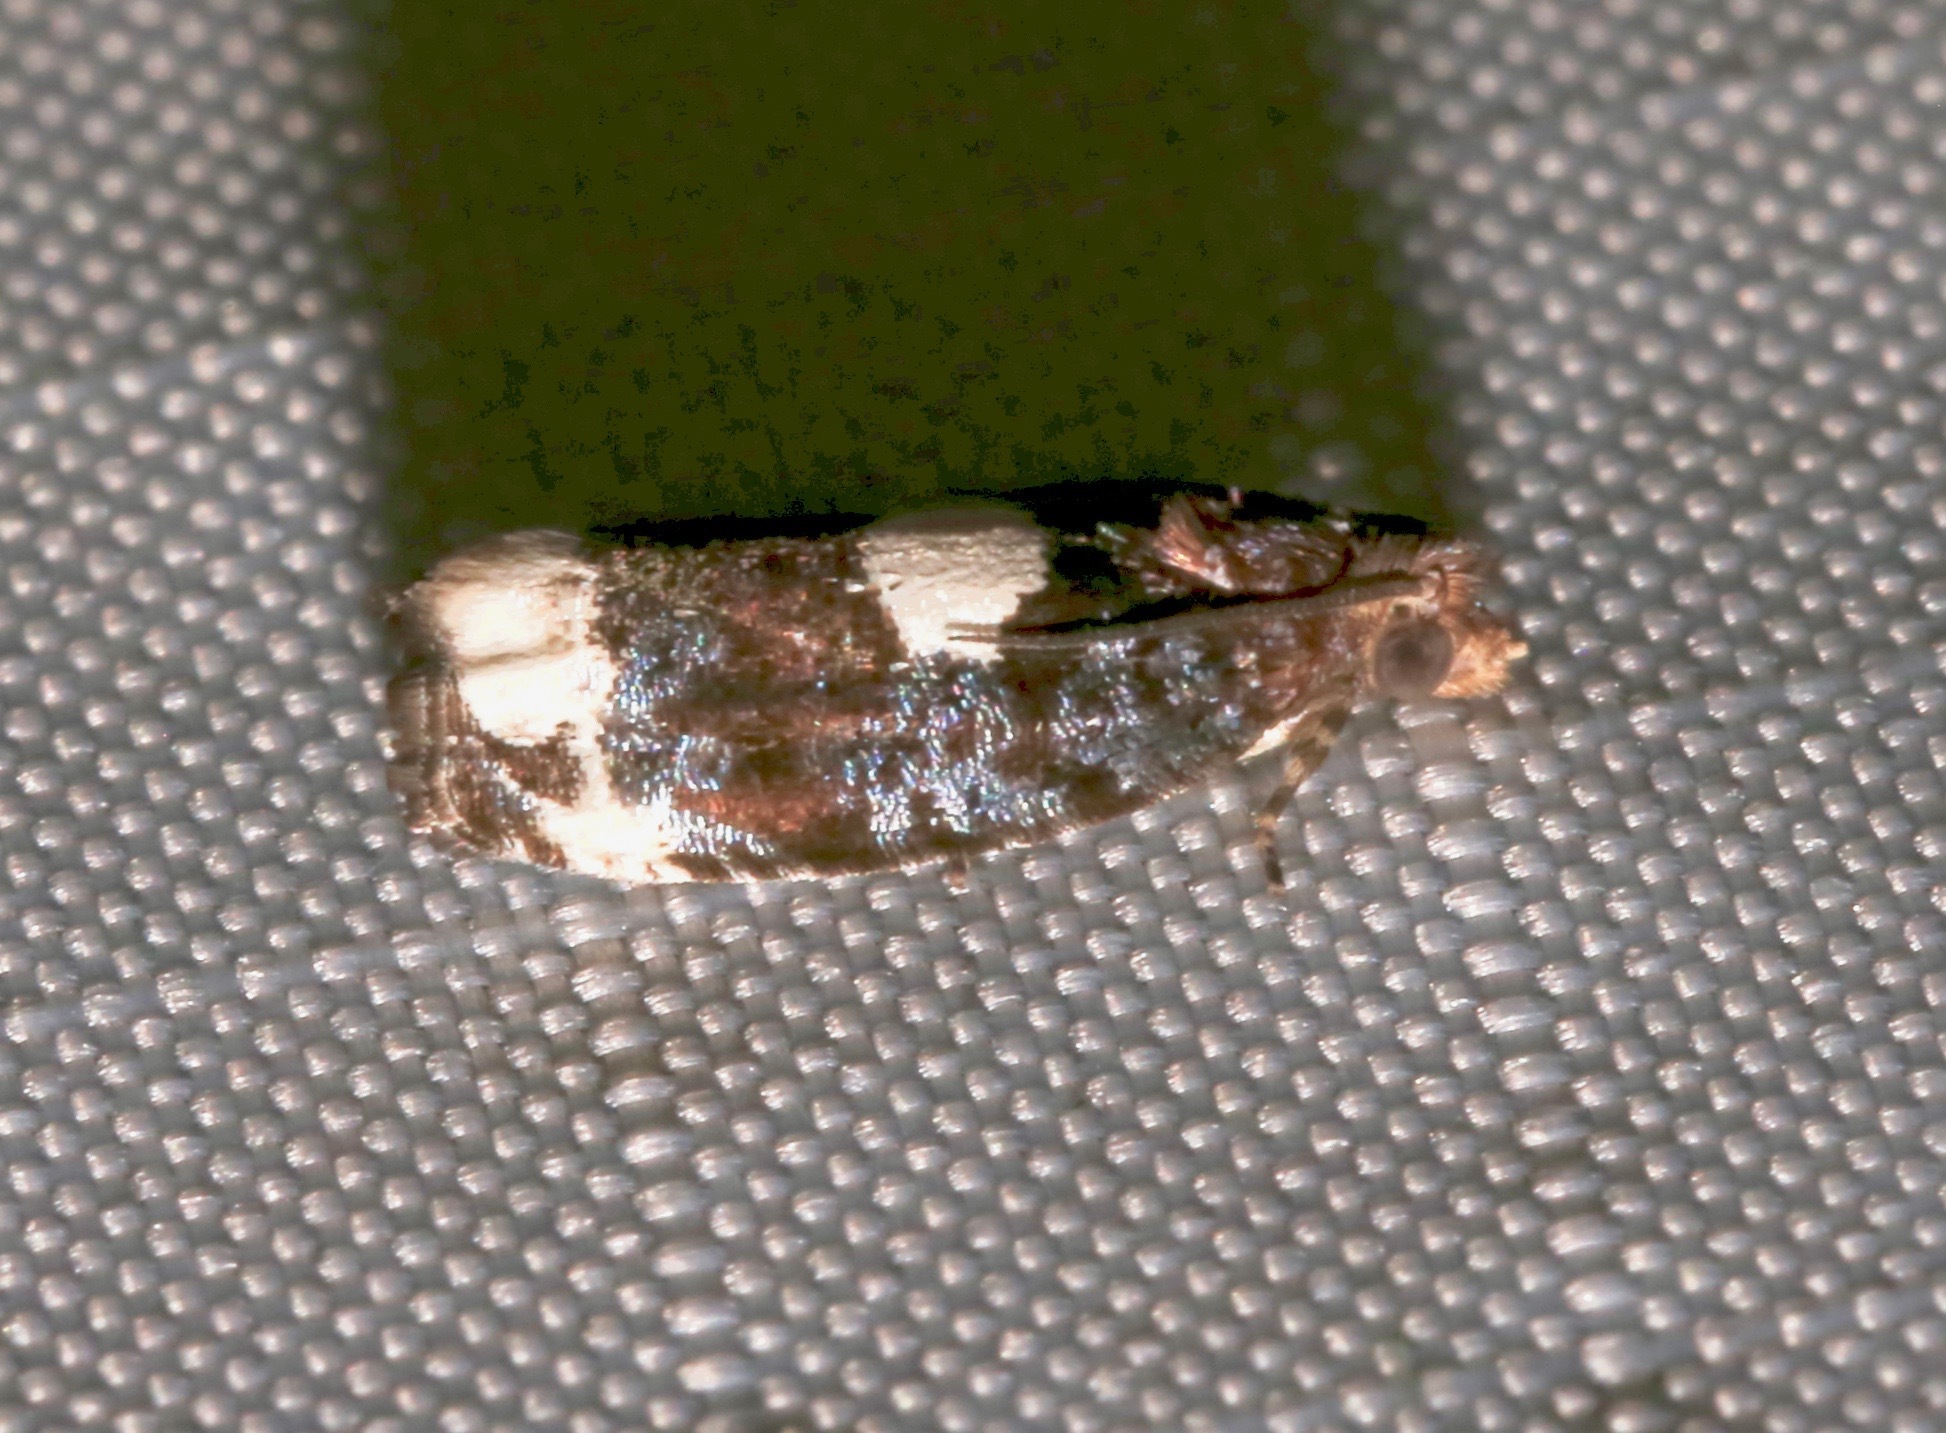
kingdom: Animalia
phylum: Arthropoda
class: Insecta
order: Lepidoptera
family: Tortricidae
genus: Olethreutes
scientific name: Olethreutes devotana
